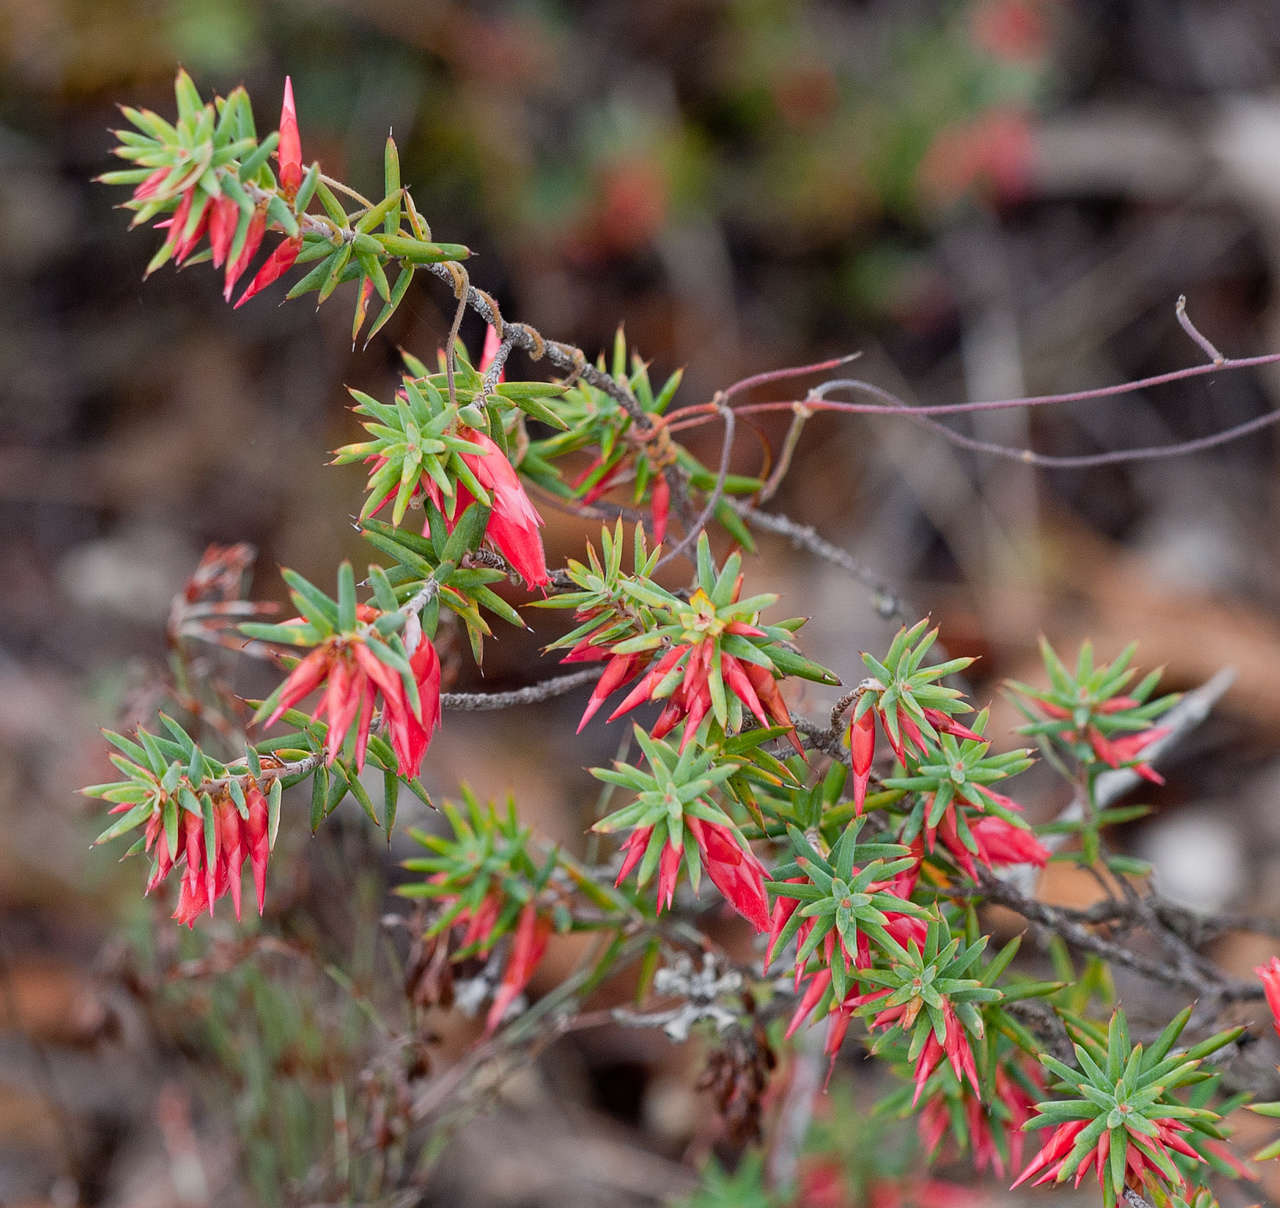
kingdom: Plantae
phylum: Tracheophyta
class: Magnoliopsida
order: Ericales
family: Ericaceae
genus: Stenanthera
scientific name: Stenanthera conostephioides
